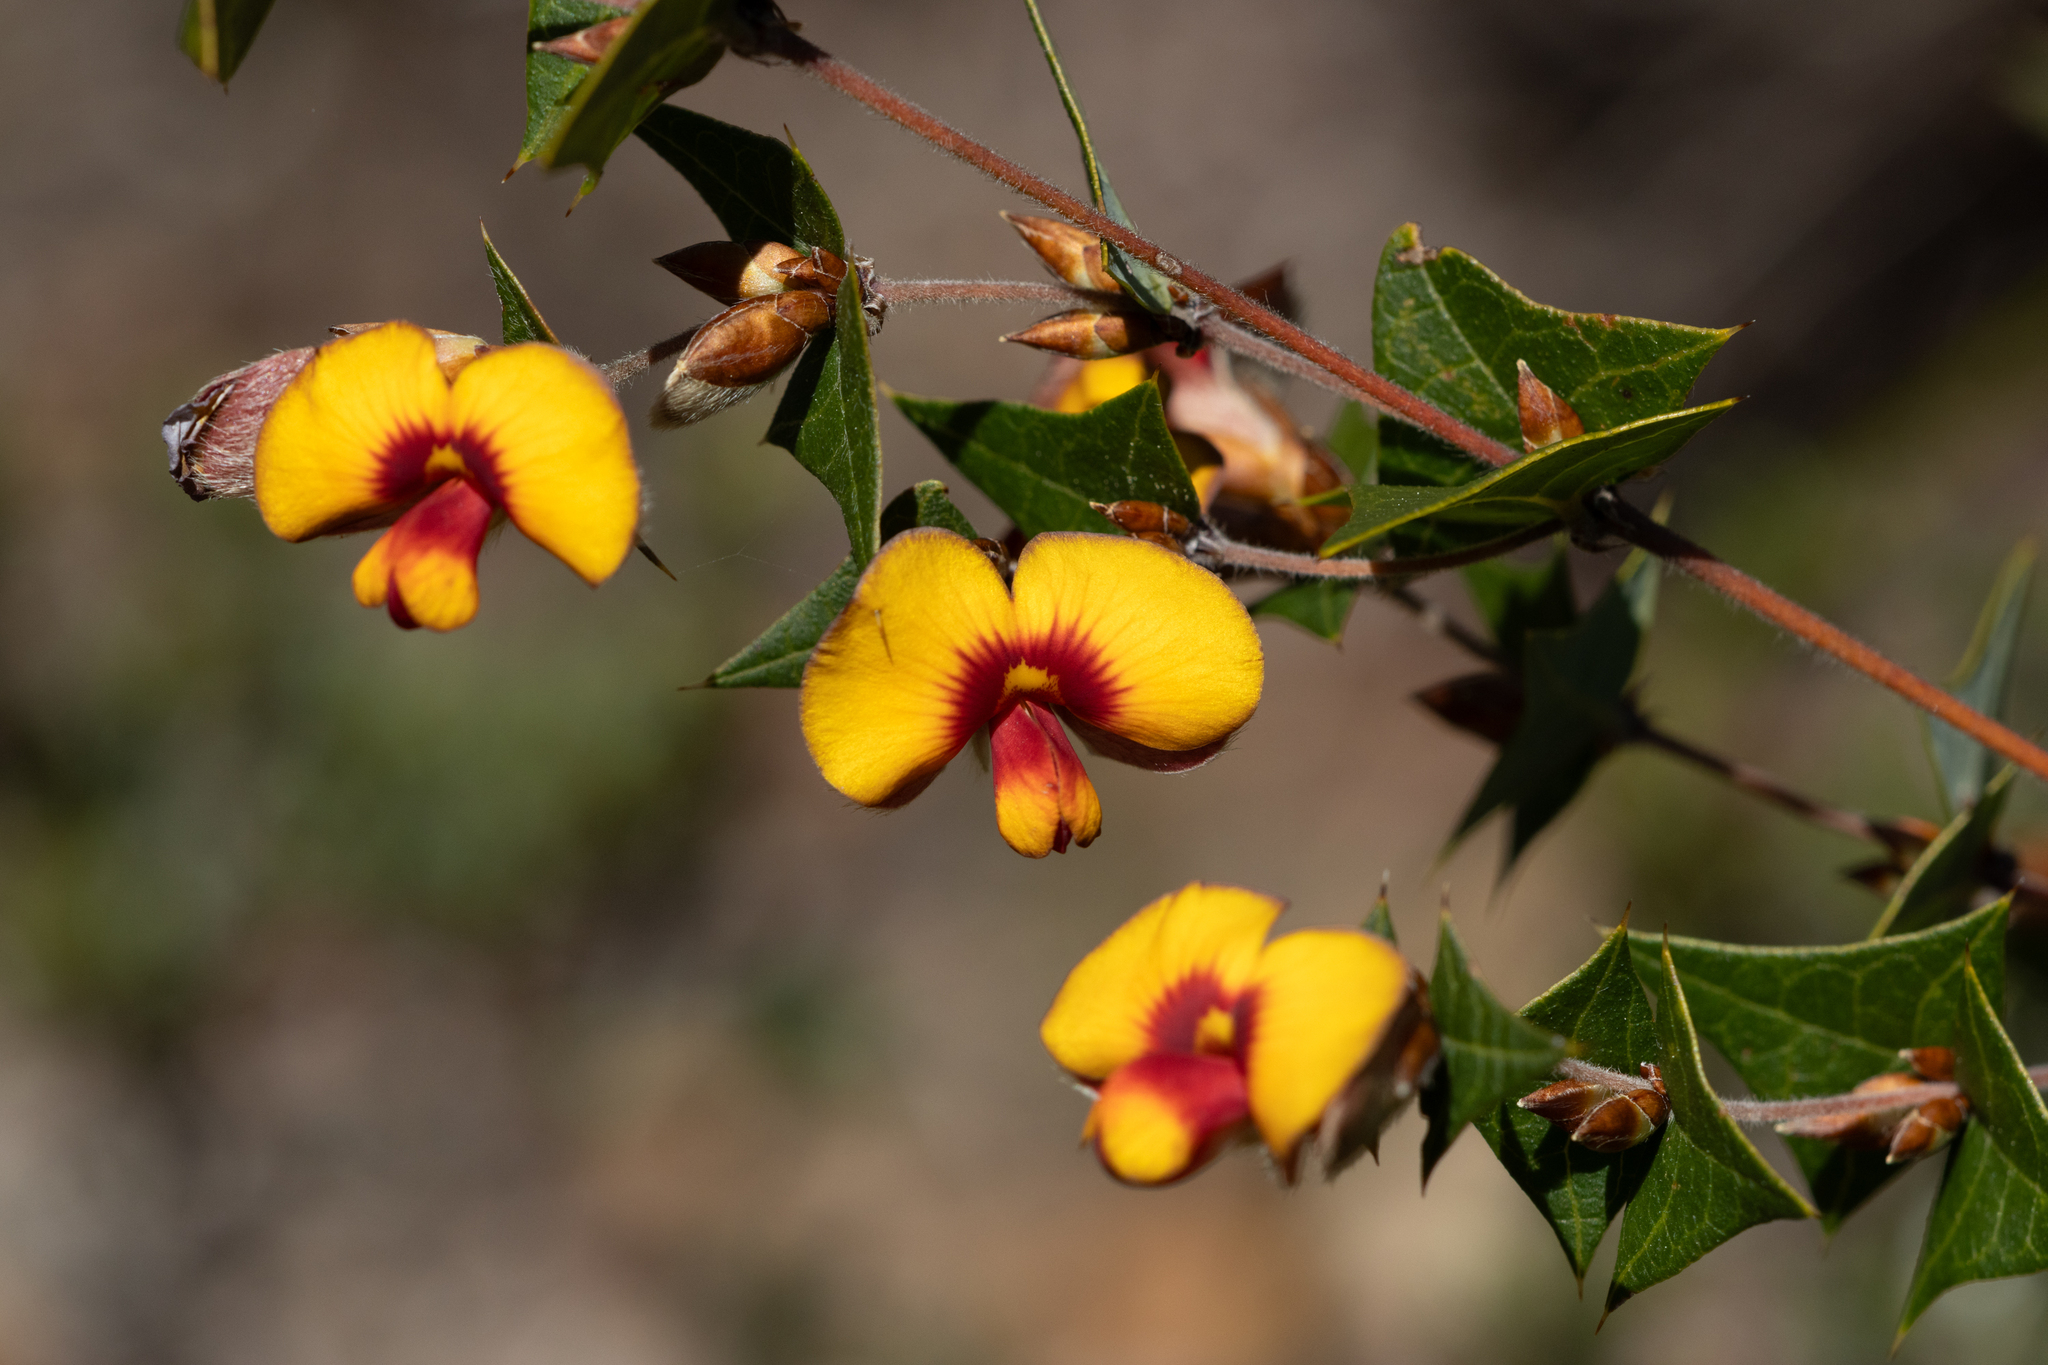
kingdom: Plantae
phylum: Tracheophyta
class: Magnoliopsida
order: Fabales
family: Fabaceae
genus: Platylobium
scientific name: Platylobium obtusangulum
